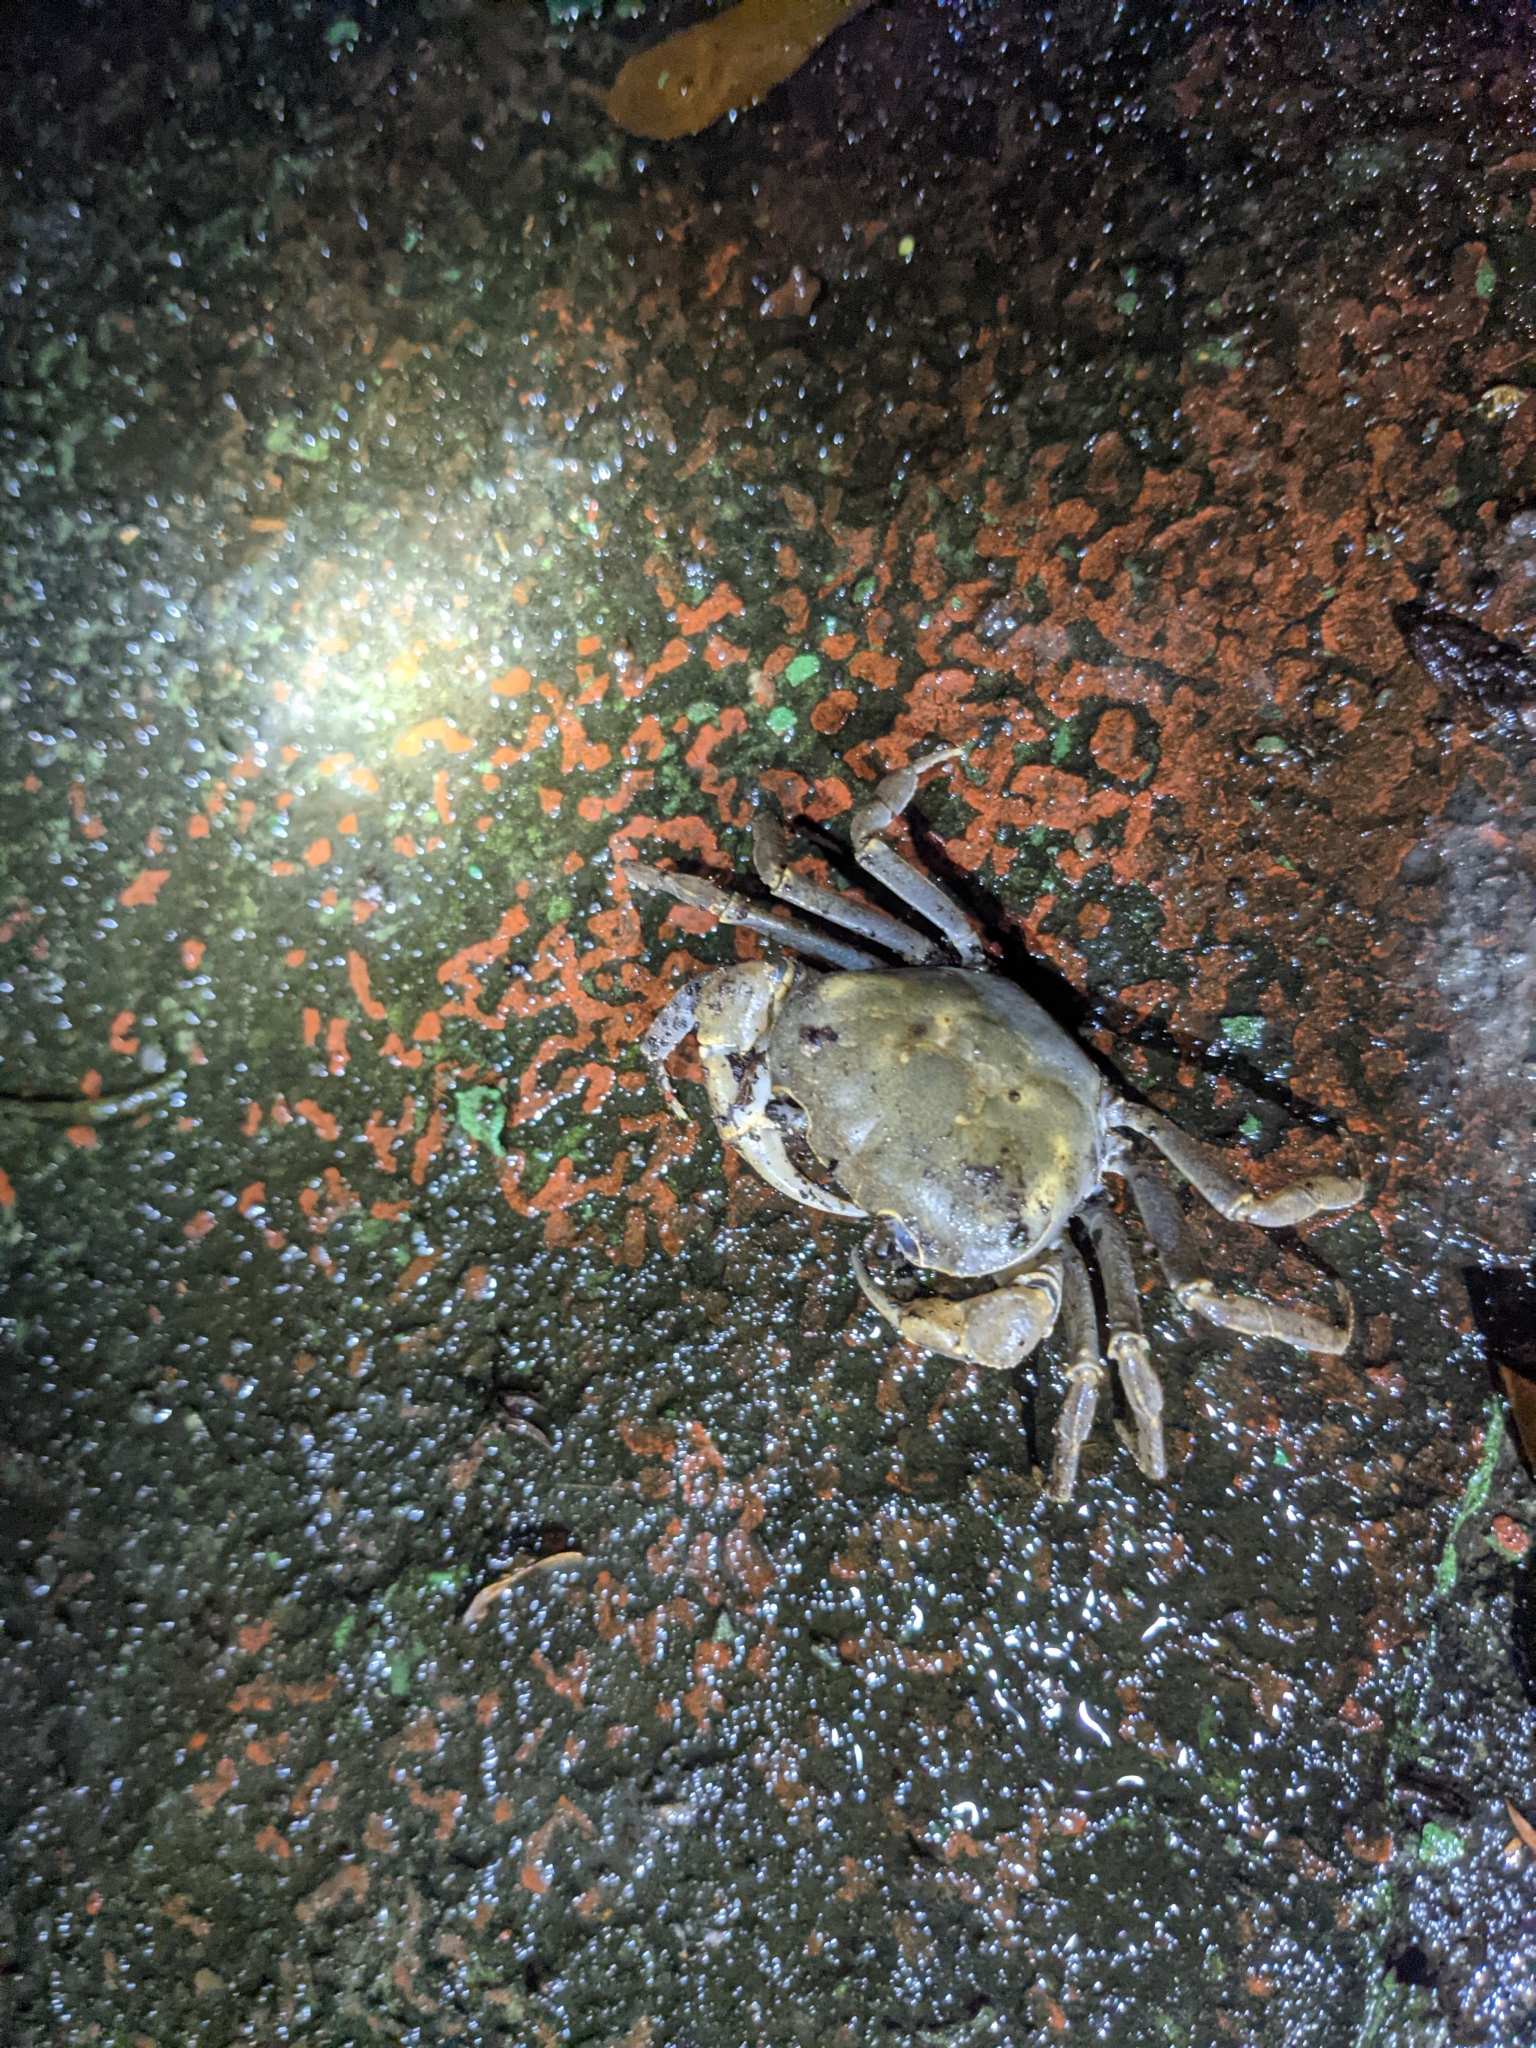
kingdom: Animalia
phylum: Arthropoda
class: Malacostraca
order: Decapoda
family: Potamidae
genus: Geothelphusa
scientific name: Geothelphusa olea
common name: Yellow-green crab
